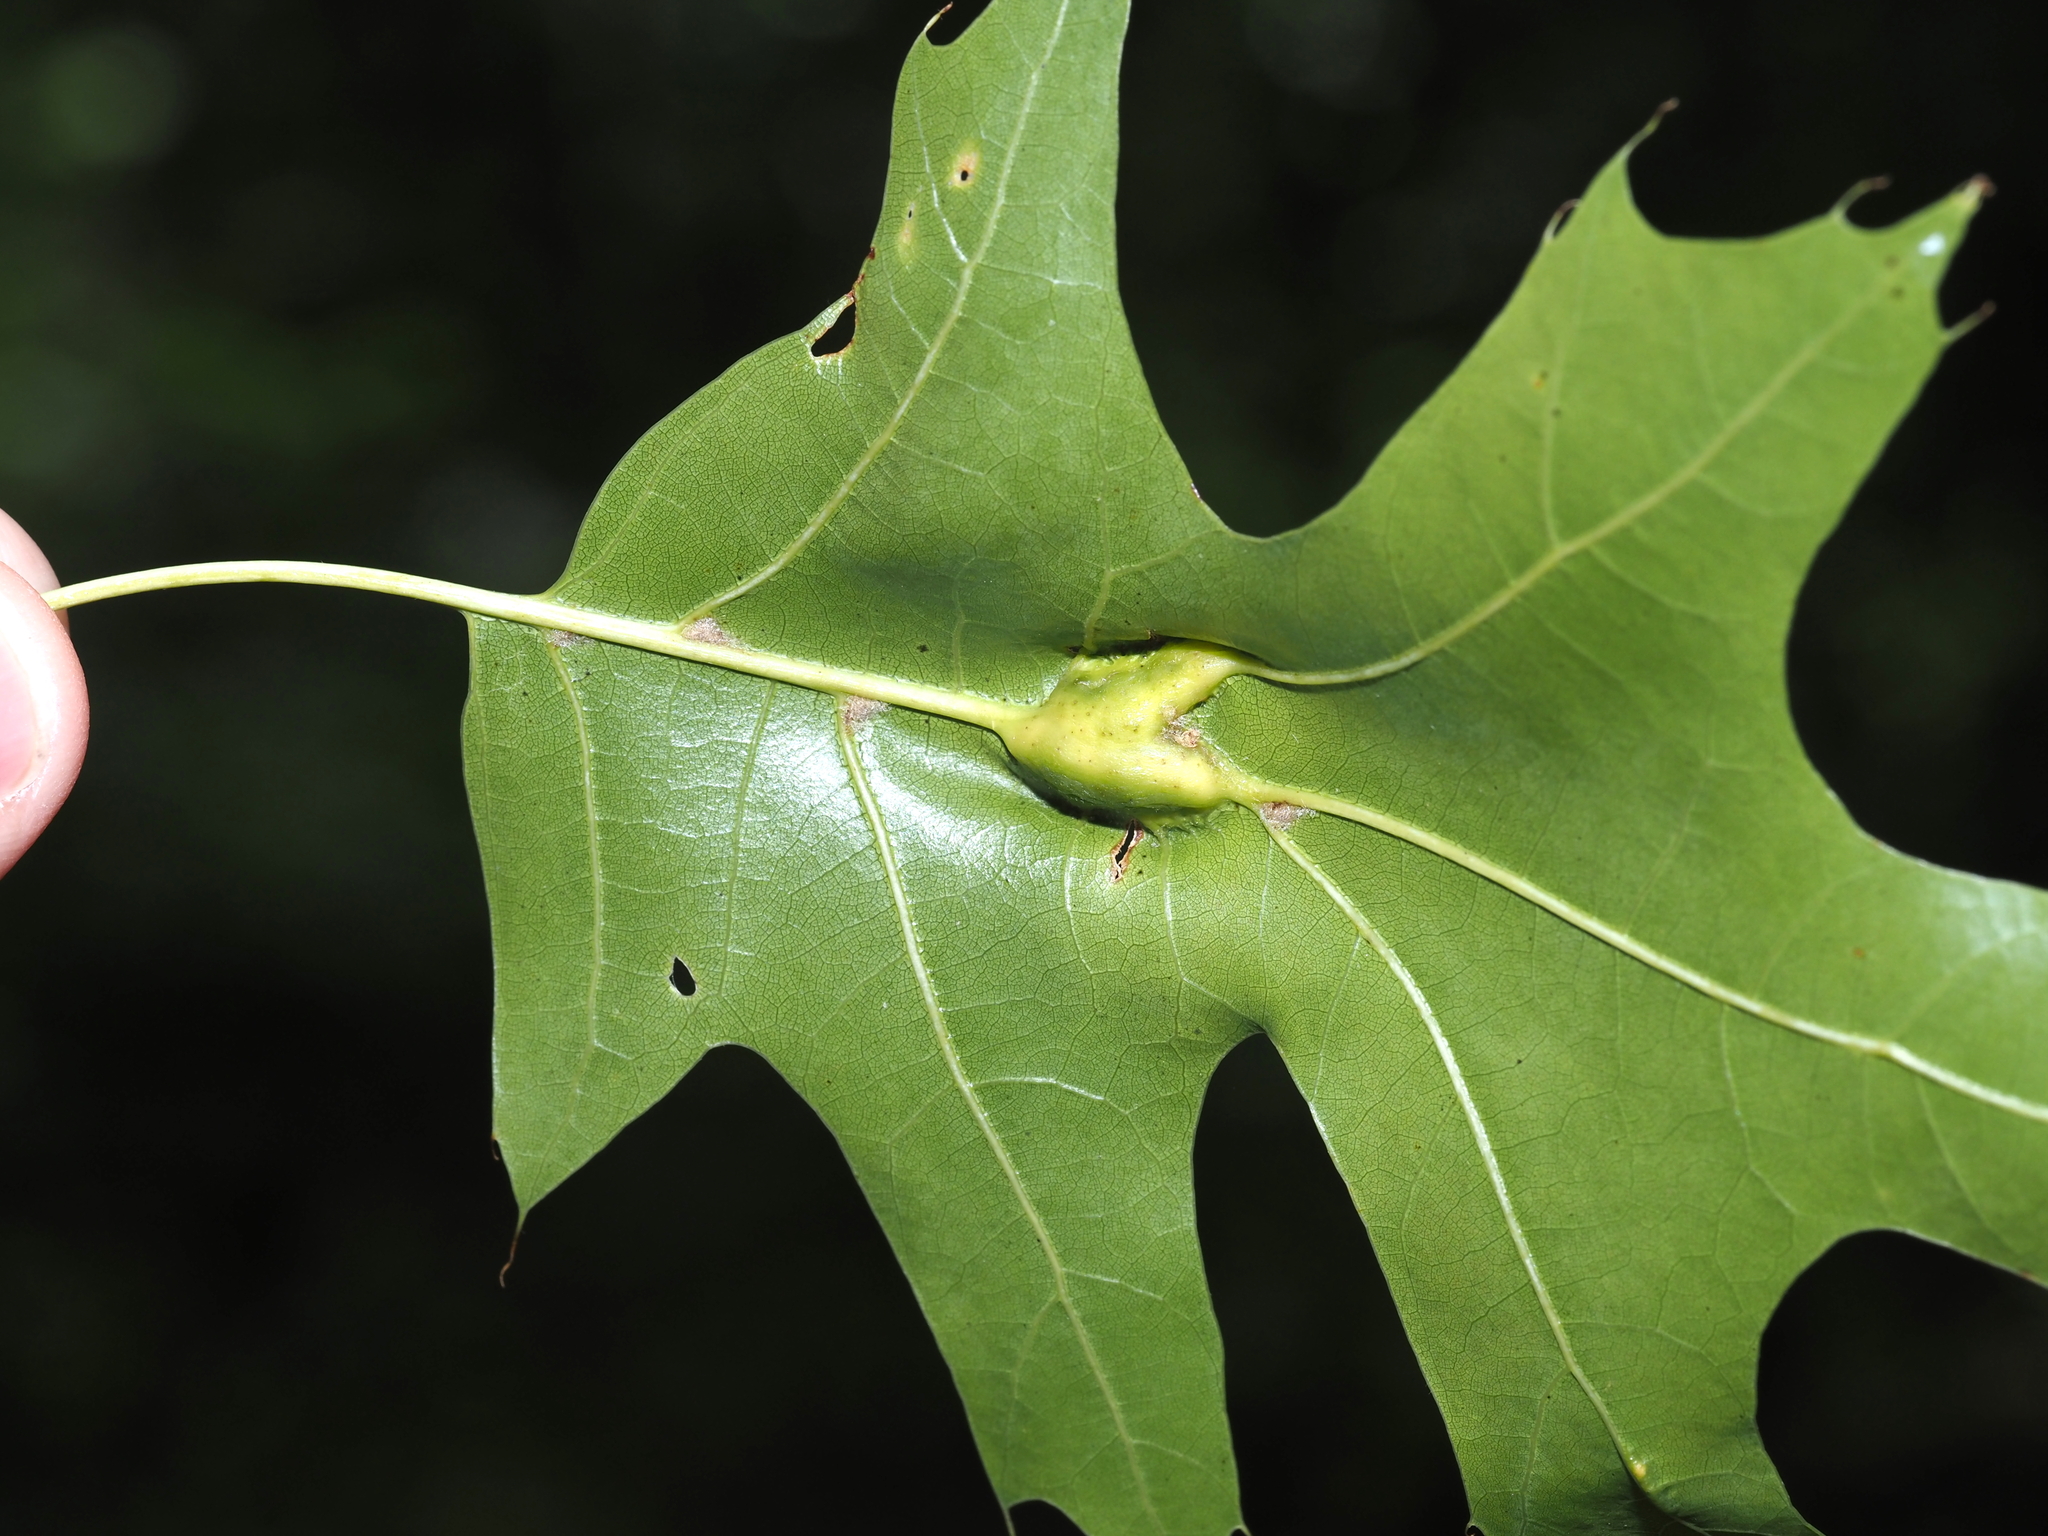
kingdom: Animalia
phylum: Arthropoda
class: Insecta
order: Hymenoptera
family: Cynipidae
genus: Melikaiella
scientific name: Melikaiella tumifica
